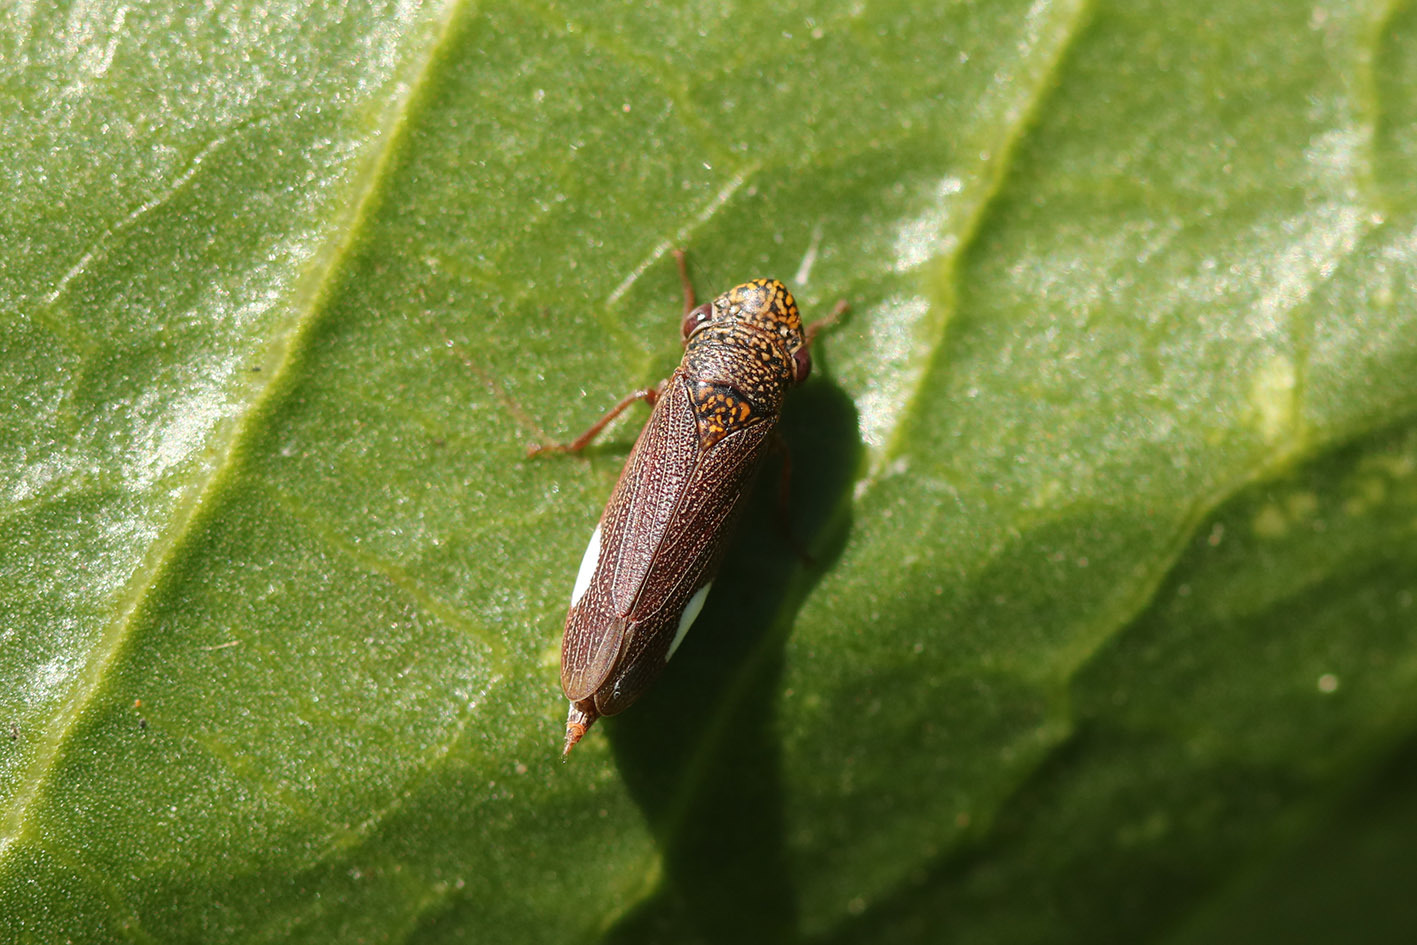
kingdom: Animalia
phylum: Arthropoda
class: Insecta
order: Hemiptera
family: Cicadellidae
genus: Tapajosa
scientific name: Tapajosa rubromarginata
